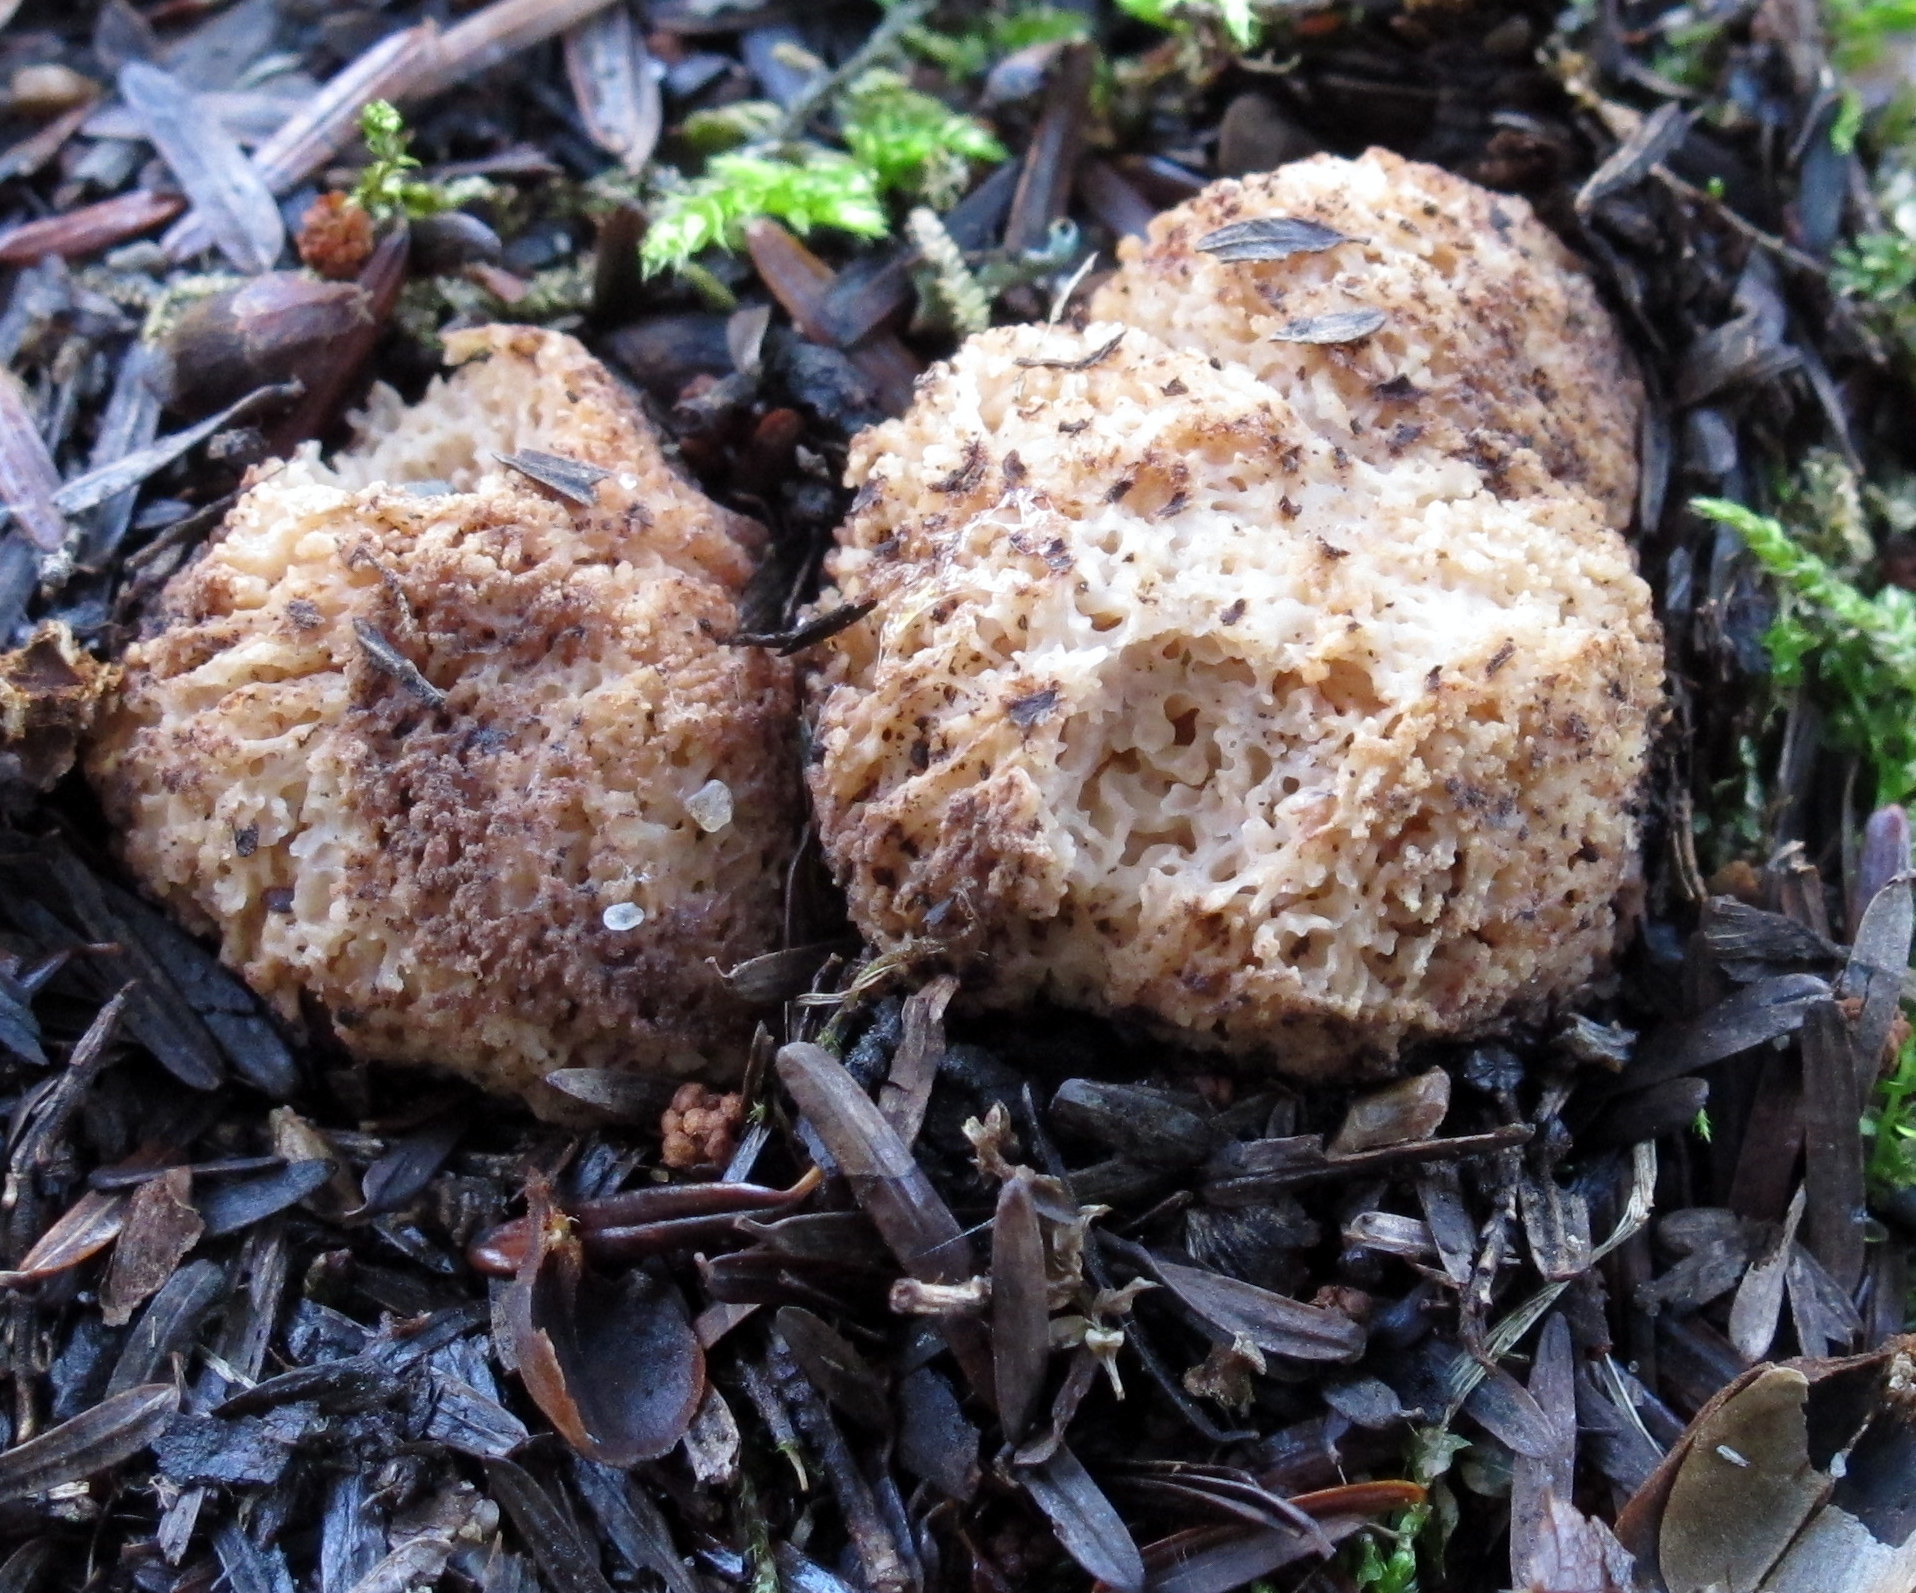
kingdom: Fungi
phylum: Basidiomycota
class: Agaricomycetes
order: Gomphales
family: Gomphaceae
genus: Gautieria
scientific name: Gautieria
